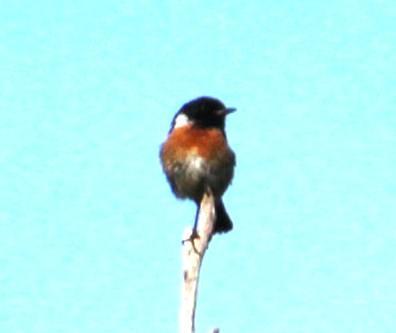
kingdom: Animalia
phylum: Chordata
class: Aves
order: Passeriformes
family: Muscicapidae
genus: Saxicola
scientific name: Saxicola rubicola
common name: European stonechat
